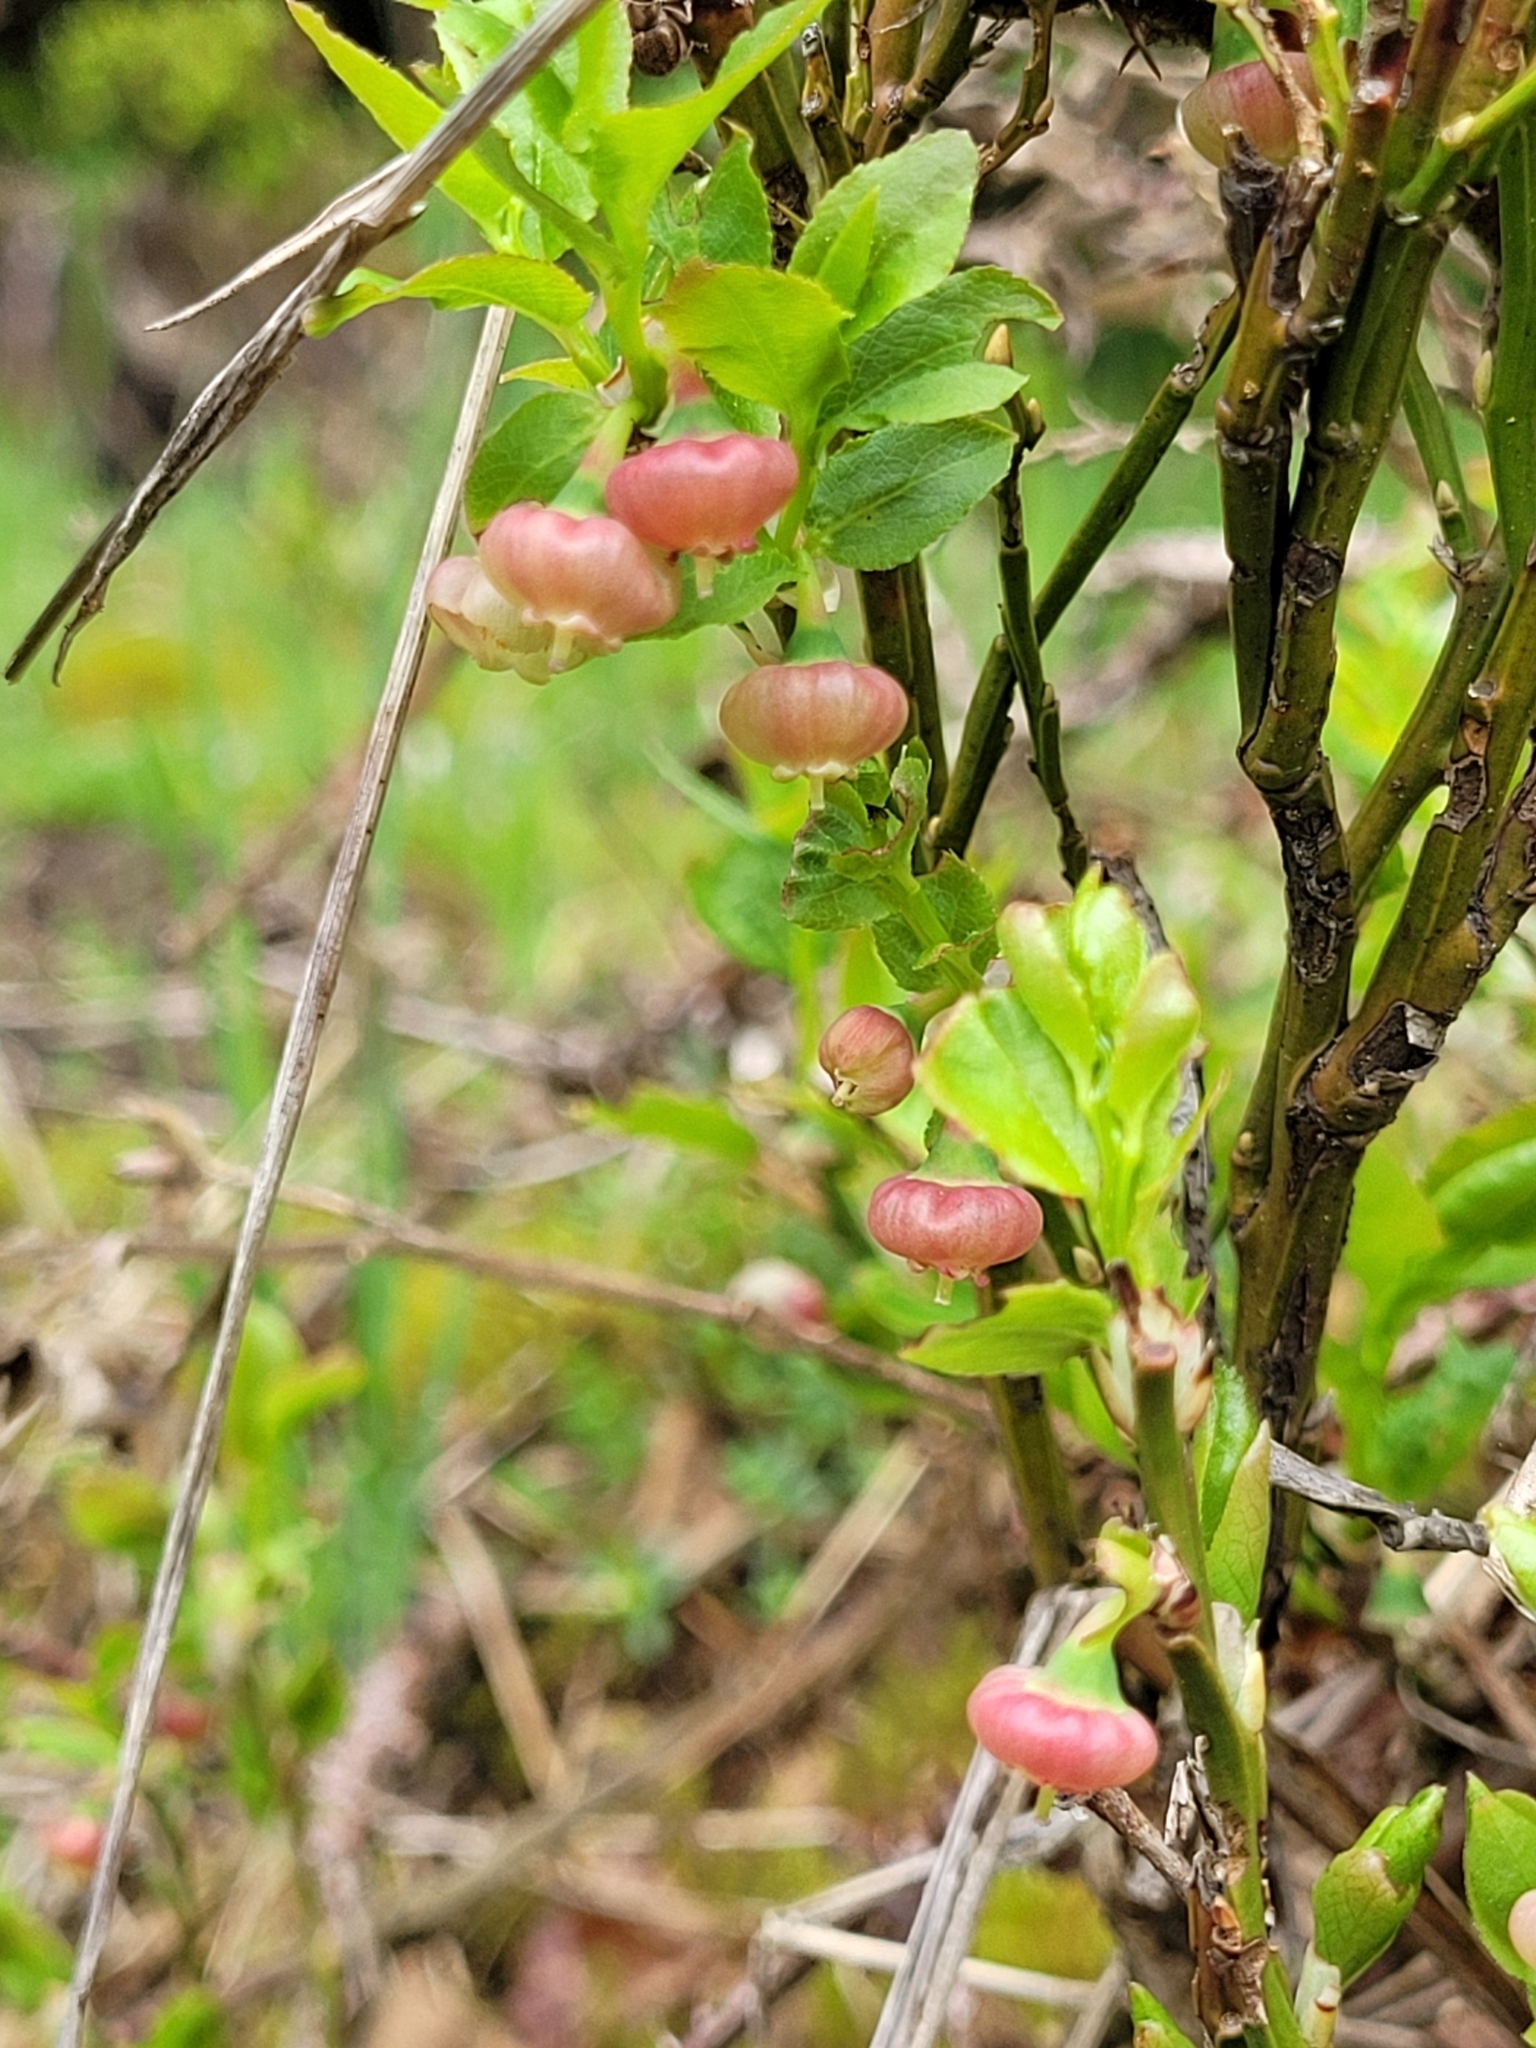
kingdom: Plantae
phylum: Tracheophyta
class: Magnoliopsida
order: Ericales
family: Ericaceae
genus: Vaccinium
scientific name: Vaccinium myrtillus
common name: Bilberry
